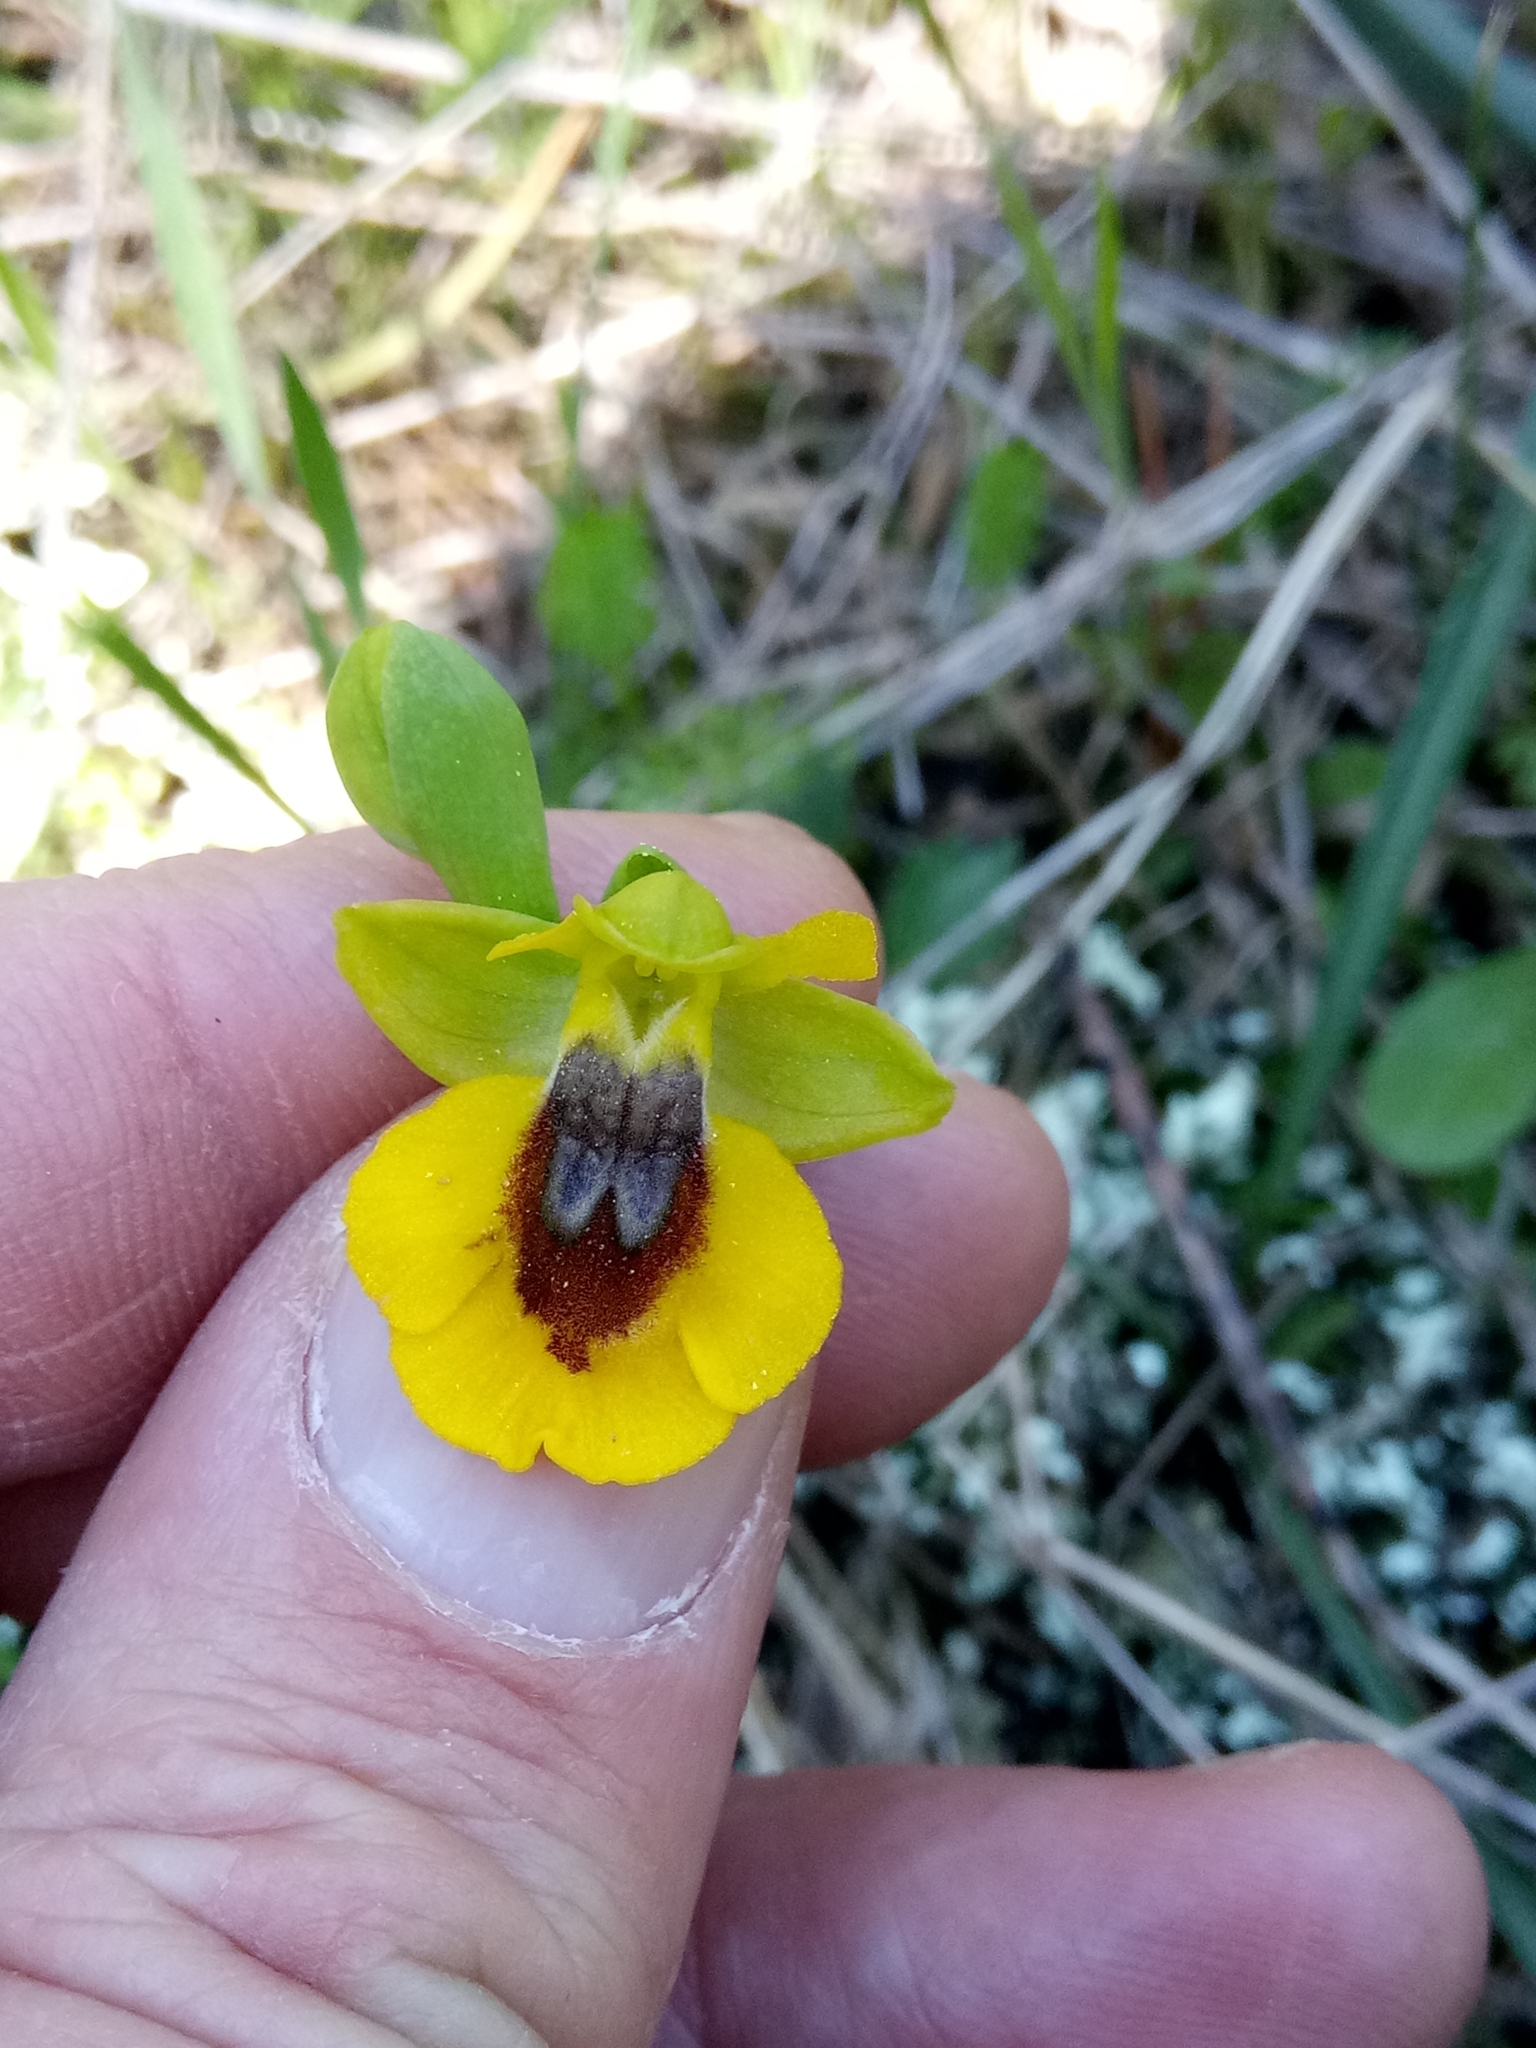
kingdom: Plantae
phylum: Tracheophyta
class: Liliopsida
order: Asparagales
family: Orchidaceae
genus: Ophrys
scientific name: Ophrys lutea
